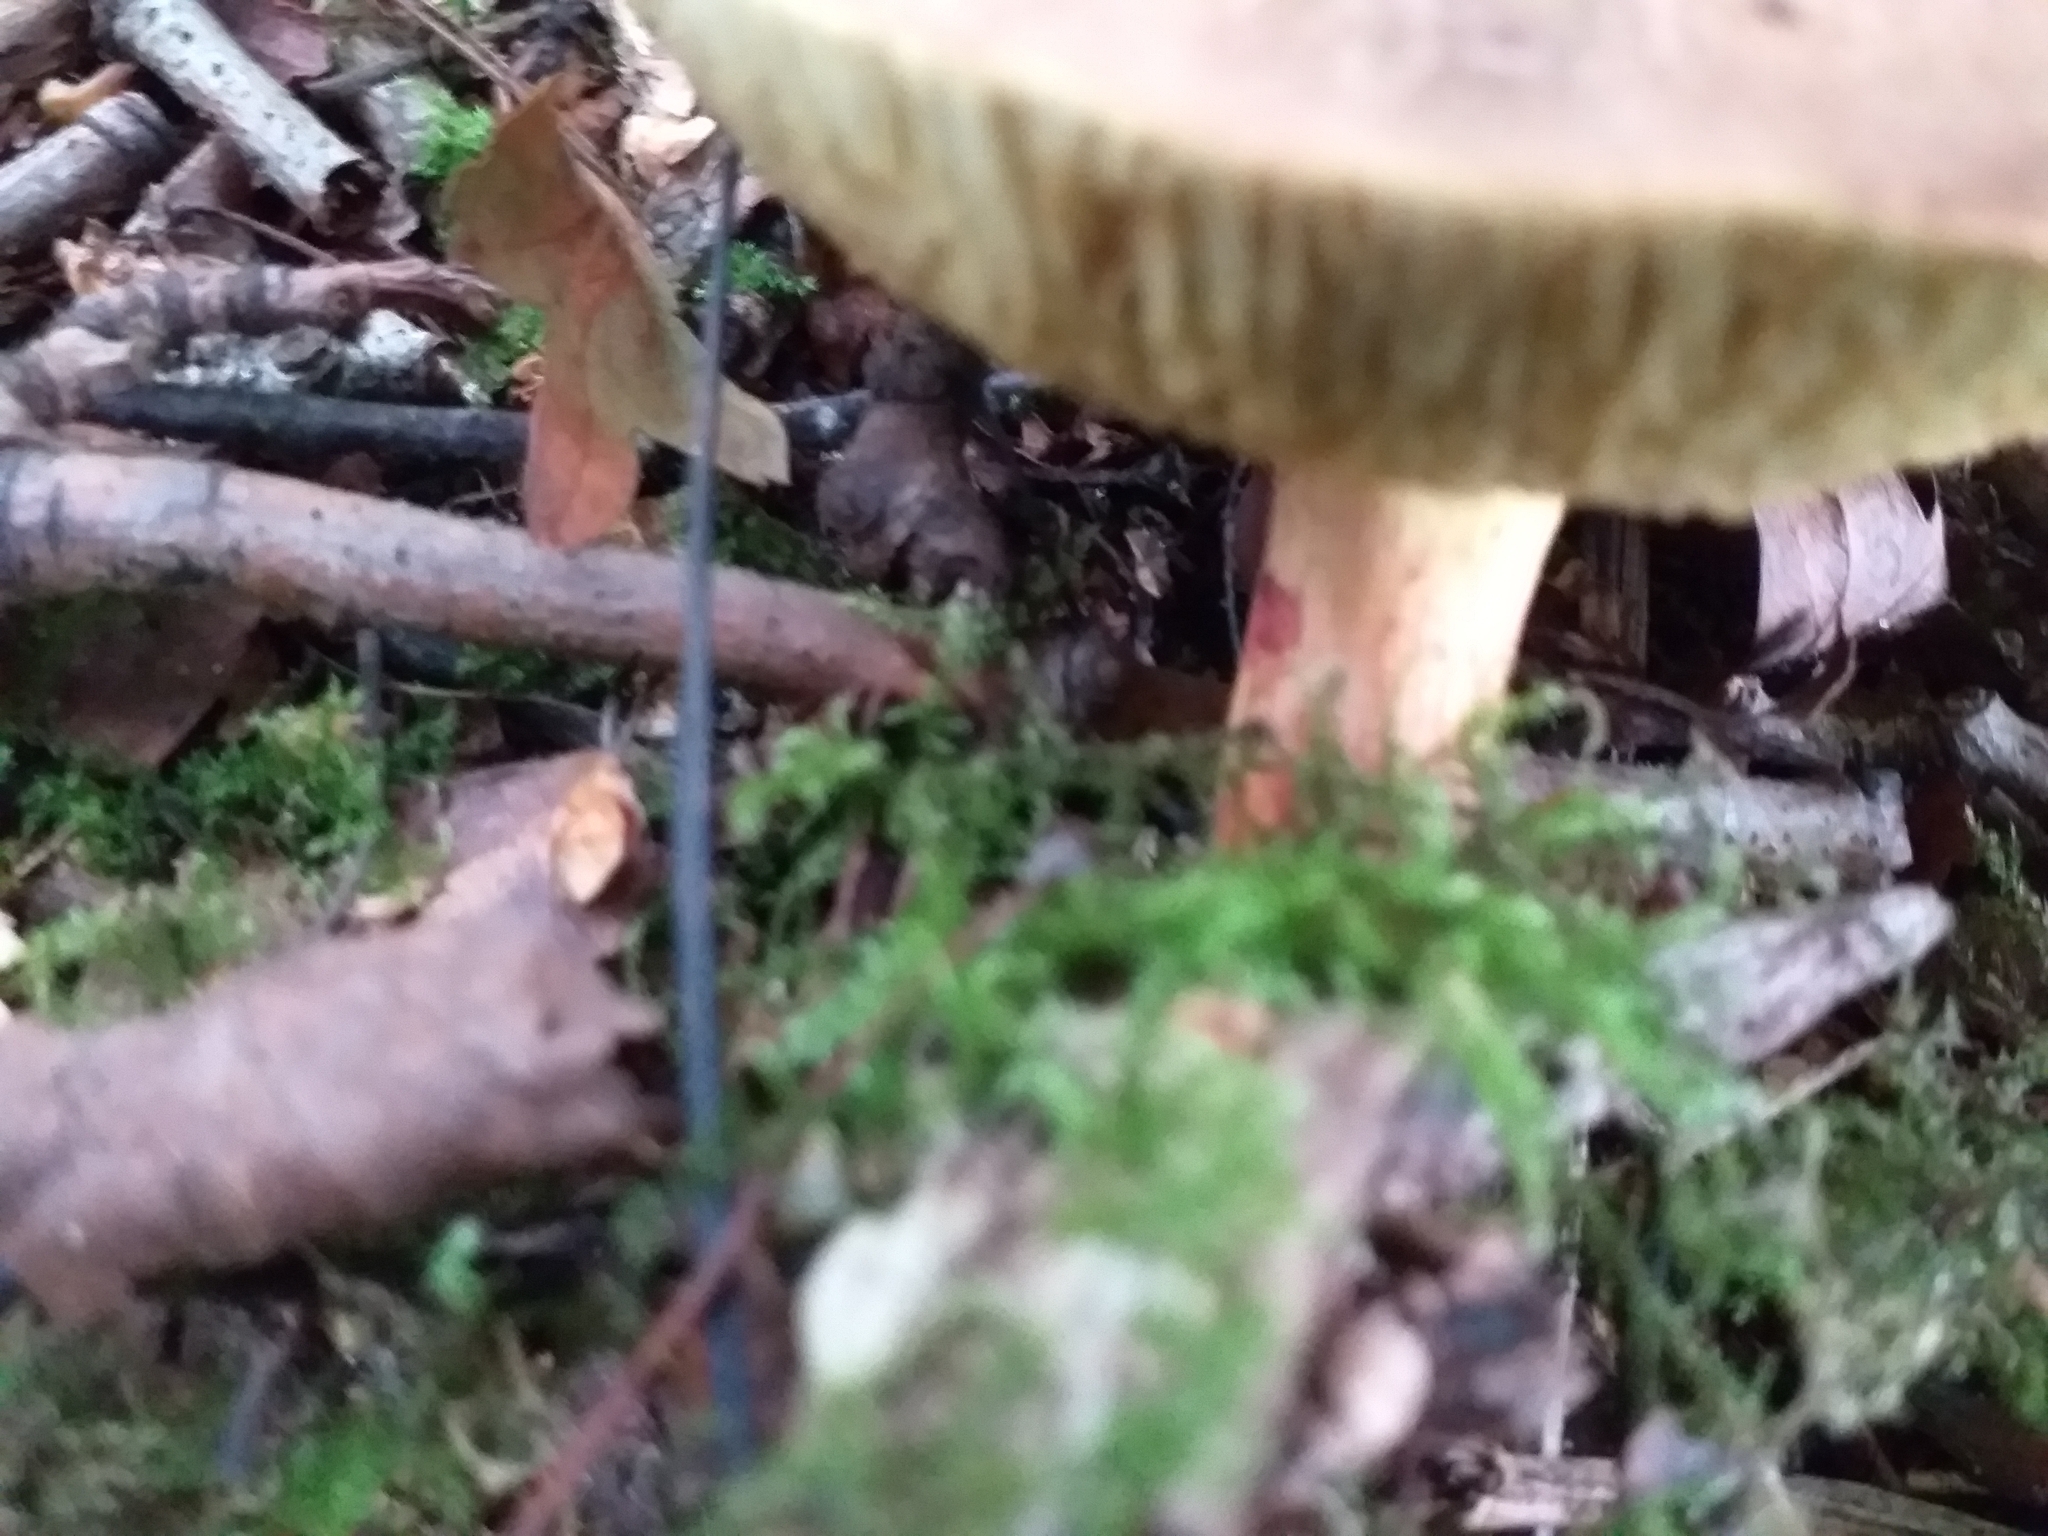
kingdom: Fungi
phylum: Basidiomycota
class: Agaricomycetes
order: Boletales
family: Boletaceae
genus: Xerocomellus
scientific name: Xerocomellus chrysenteron
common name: Red-cracking bolete
